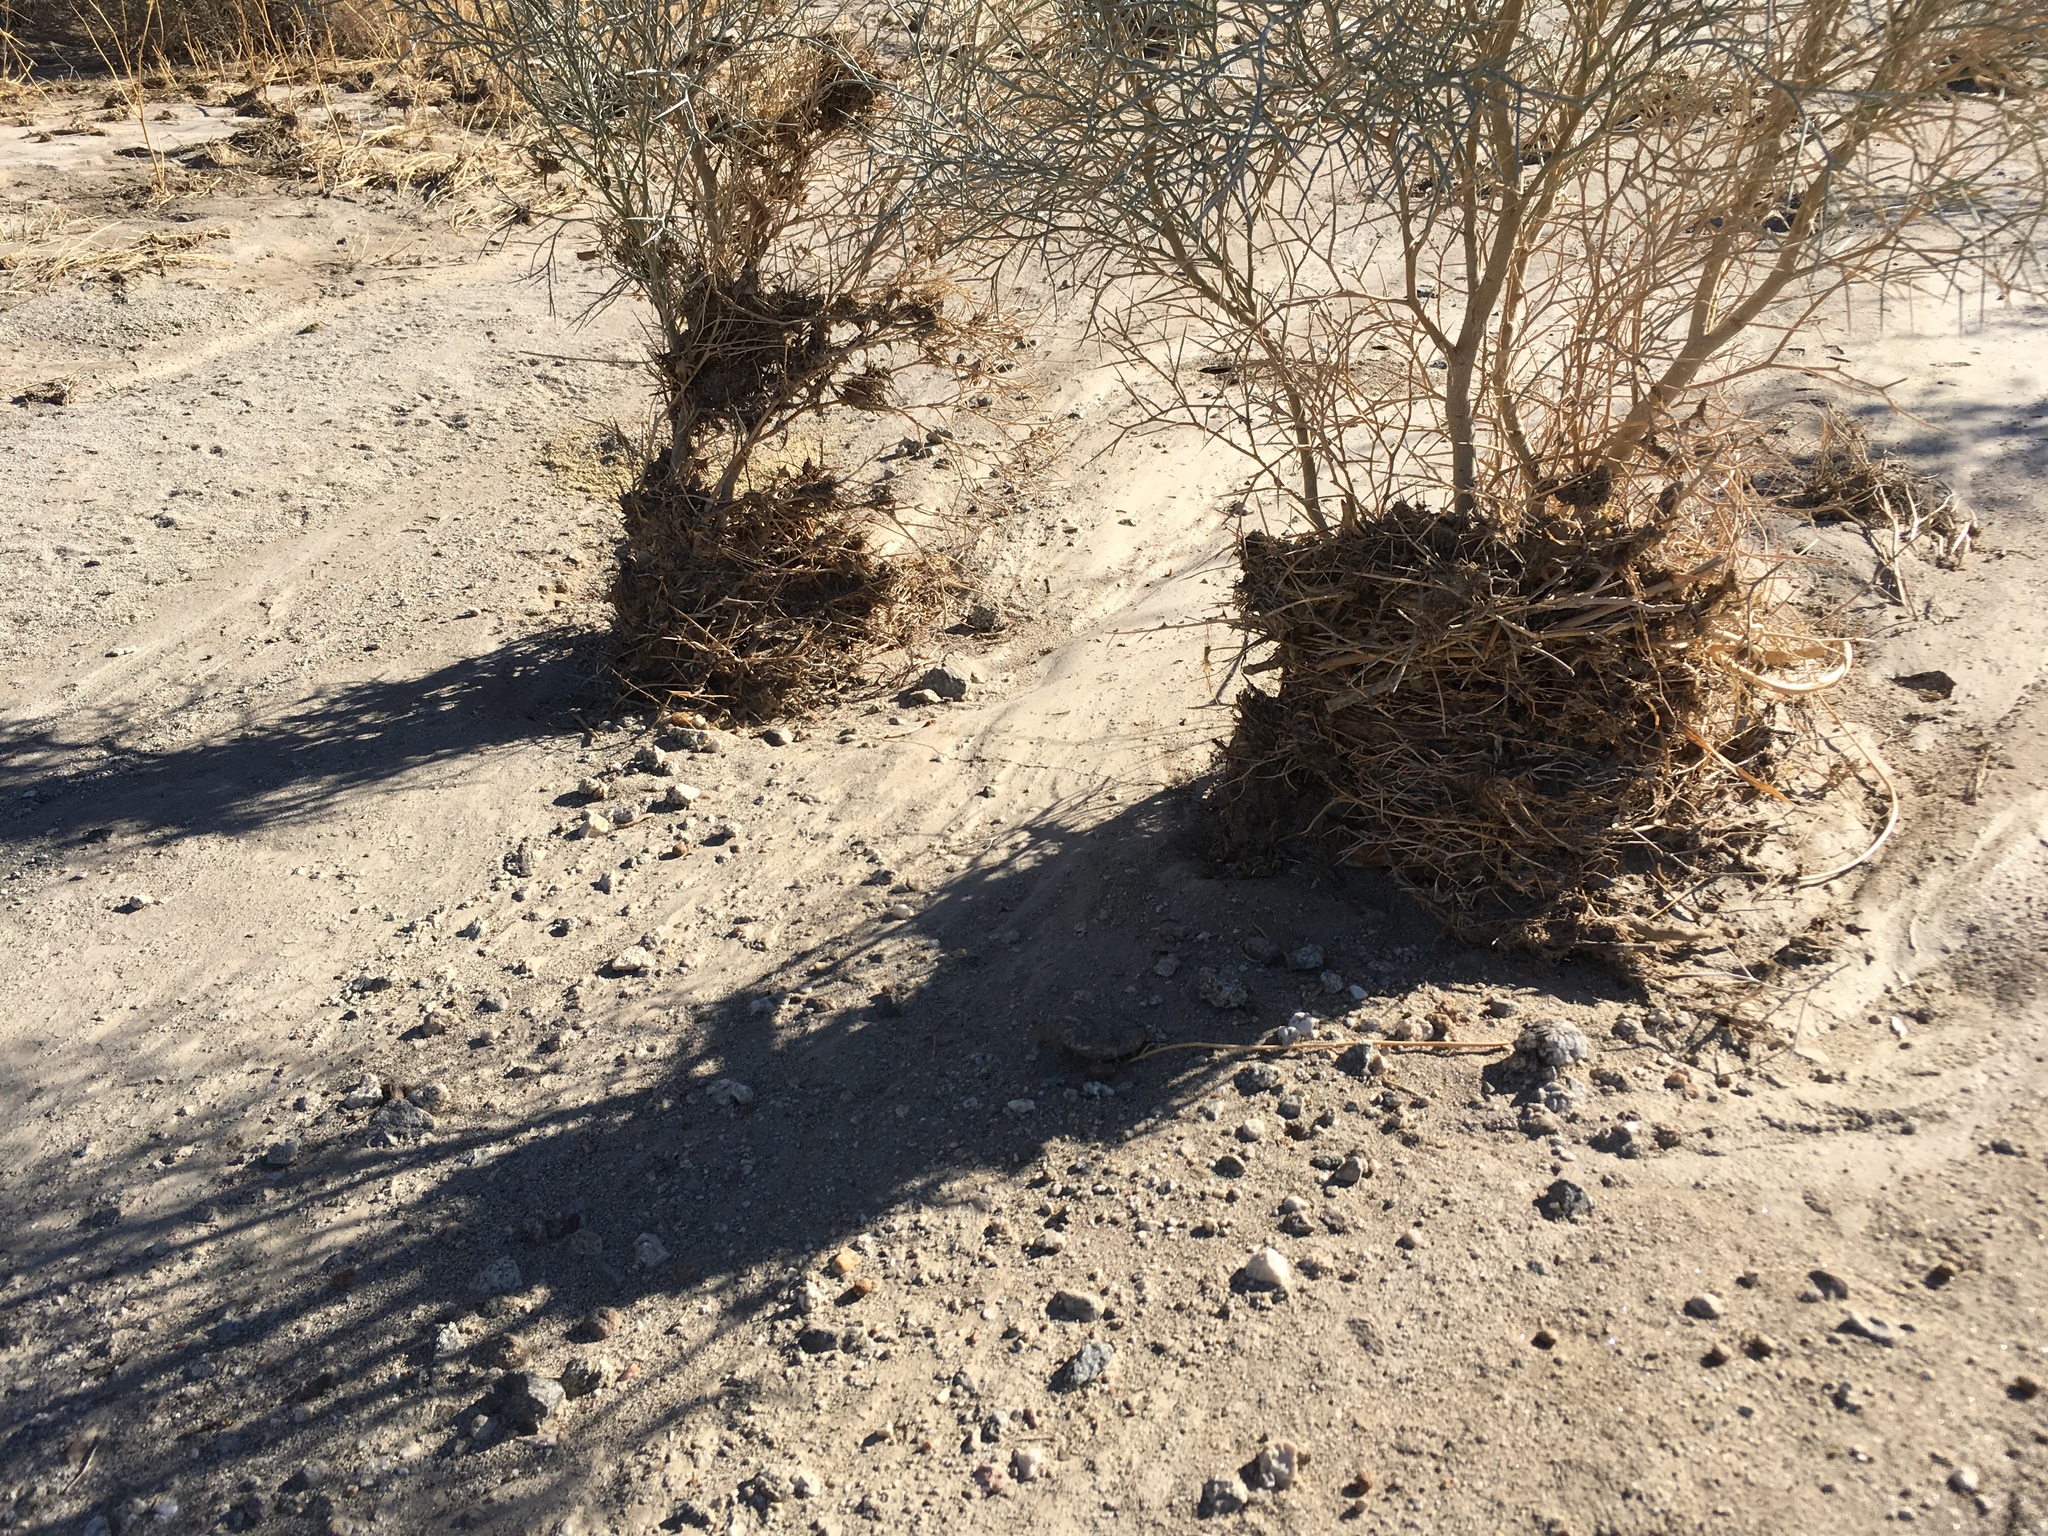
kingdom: Plantae
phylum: Tracheophyta
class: Magnoliopsida
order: Fabales
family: Fabaceae
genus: Psorothamnus
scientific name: Psorothamnus spinosus
